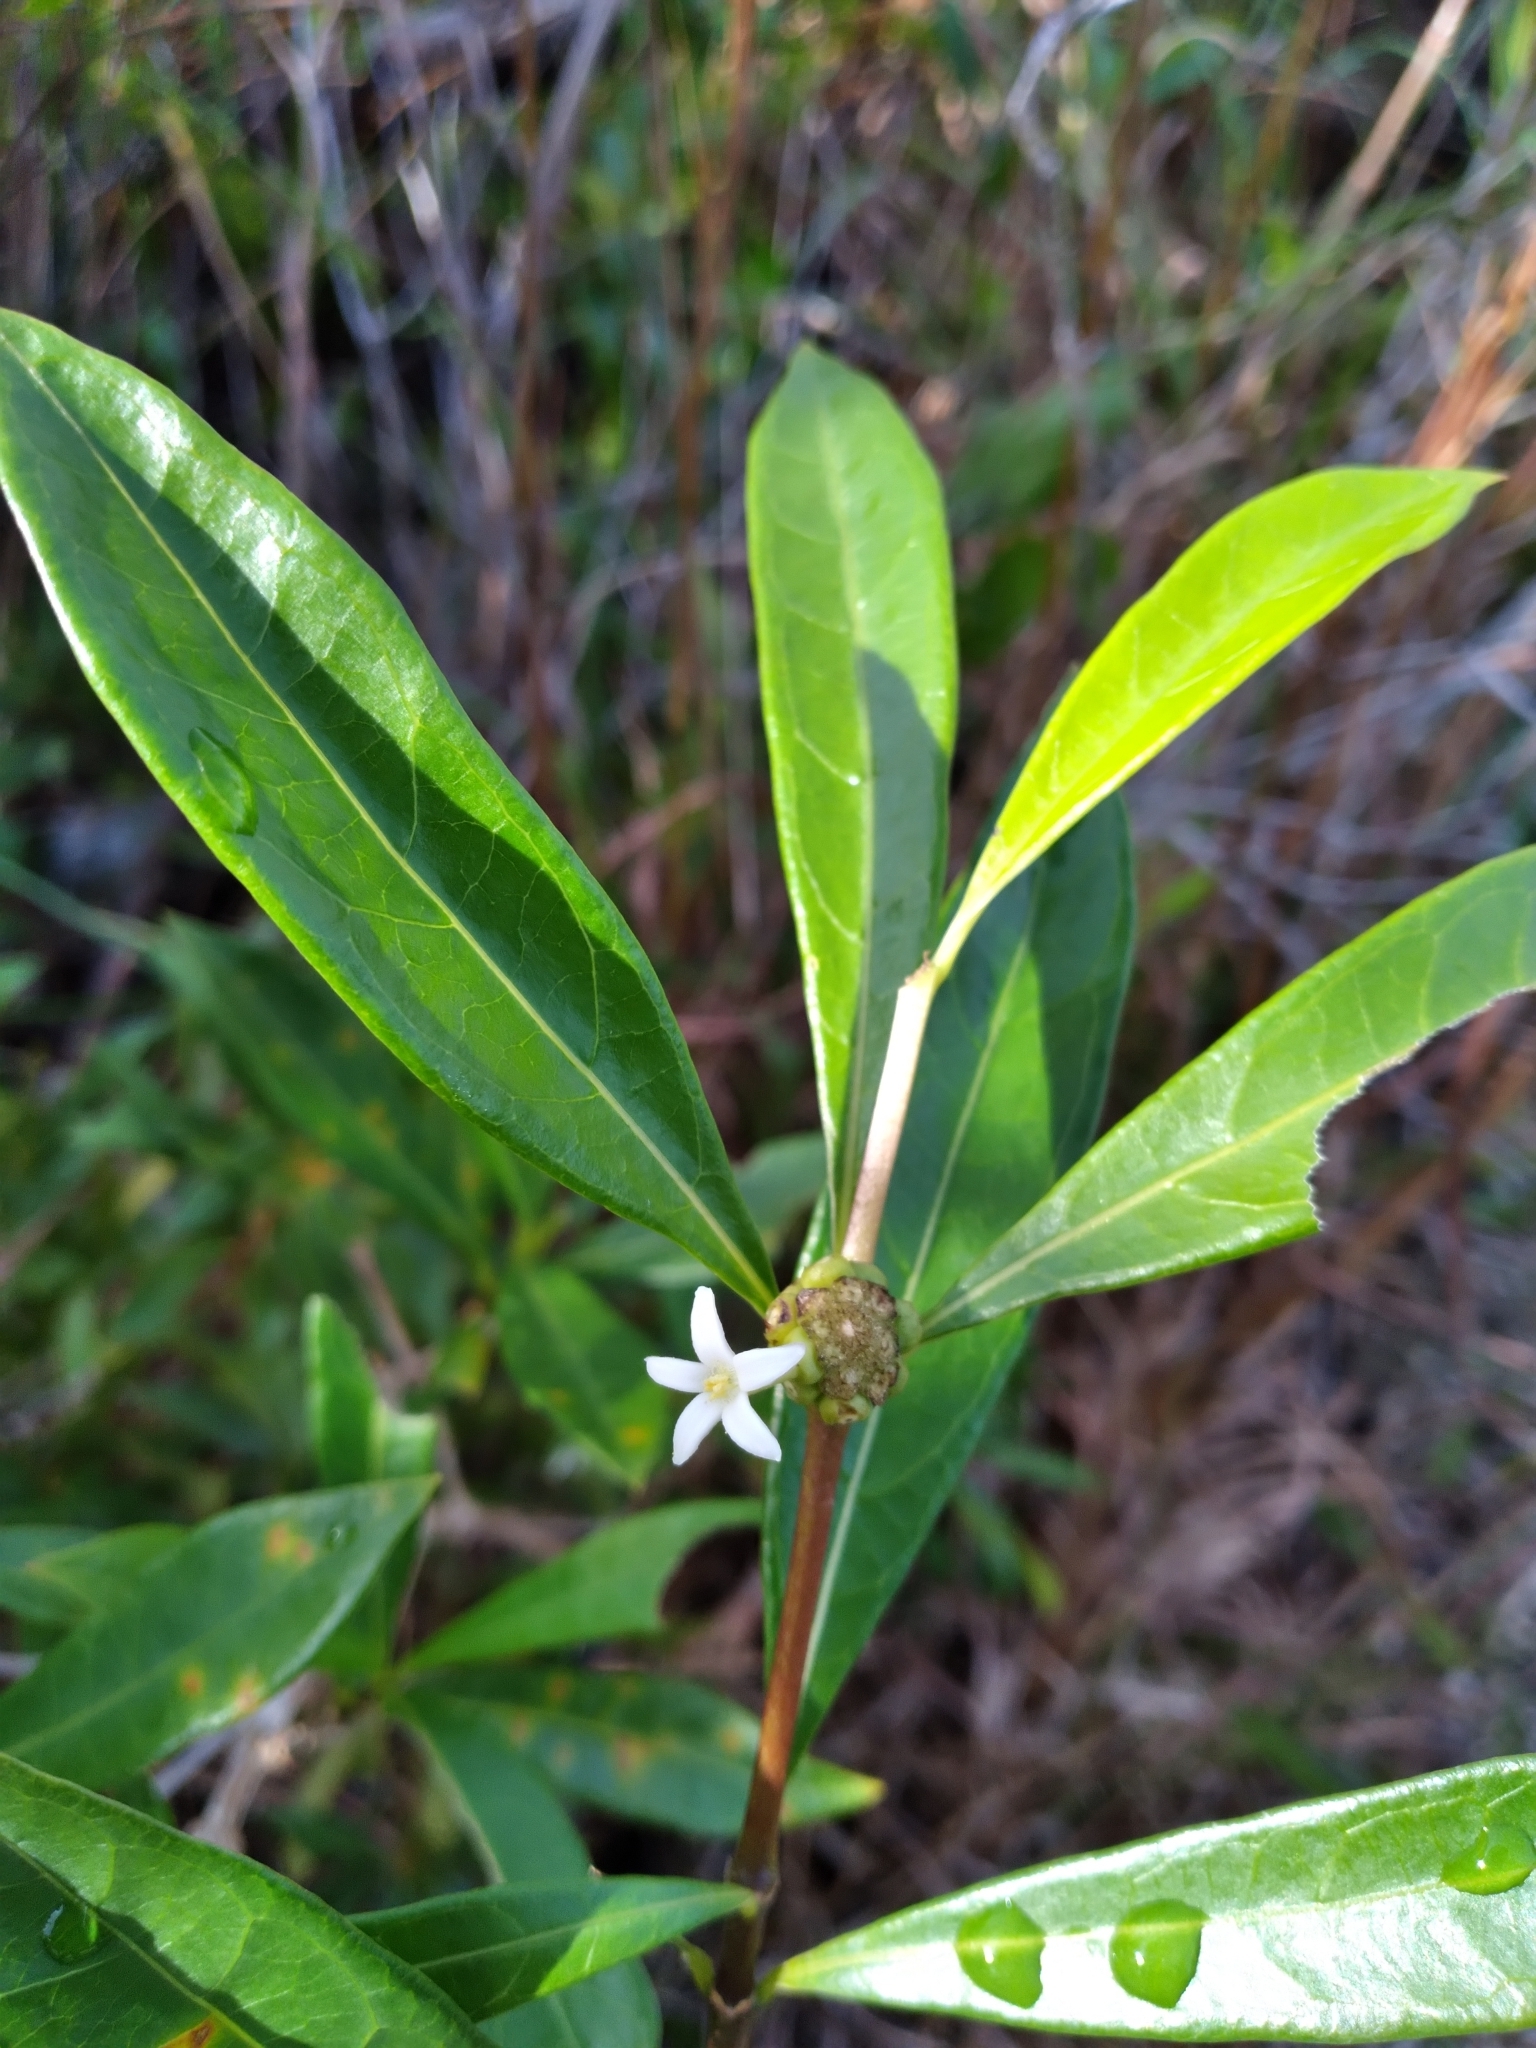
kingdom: Plantae
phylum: Tracheophyta
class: Magnoliopsida
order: Gentianales
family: Rubiaceae
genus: Morinda
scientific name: Morinda royoc
